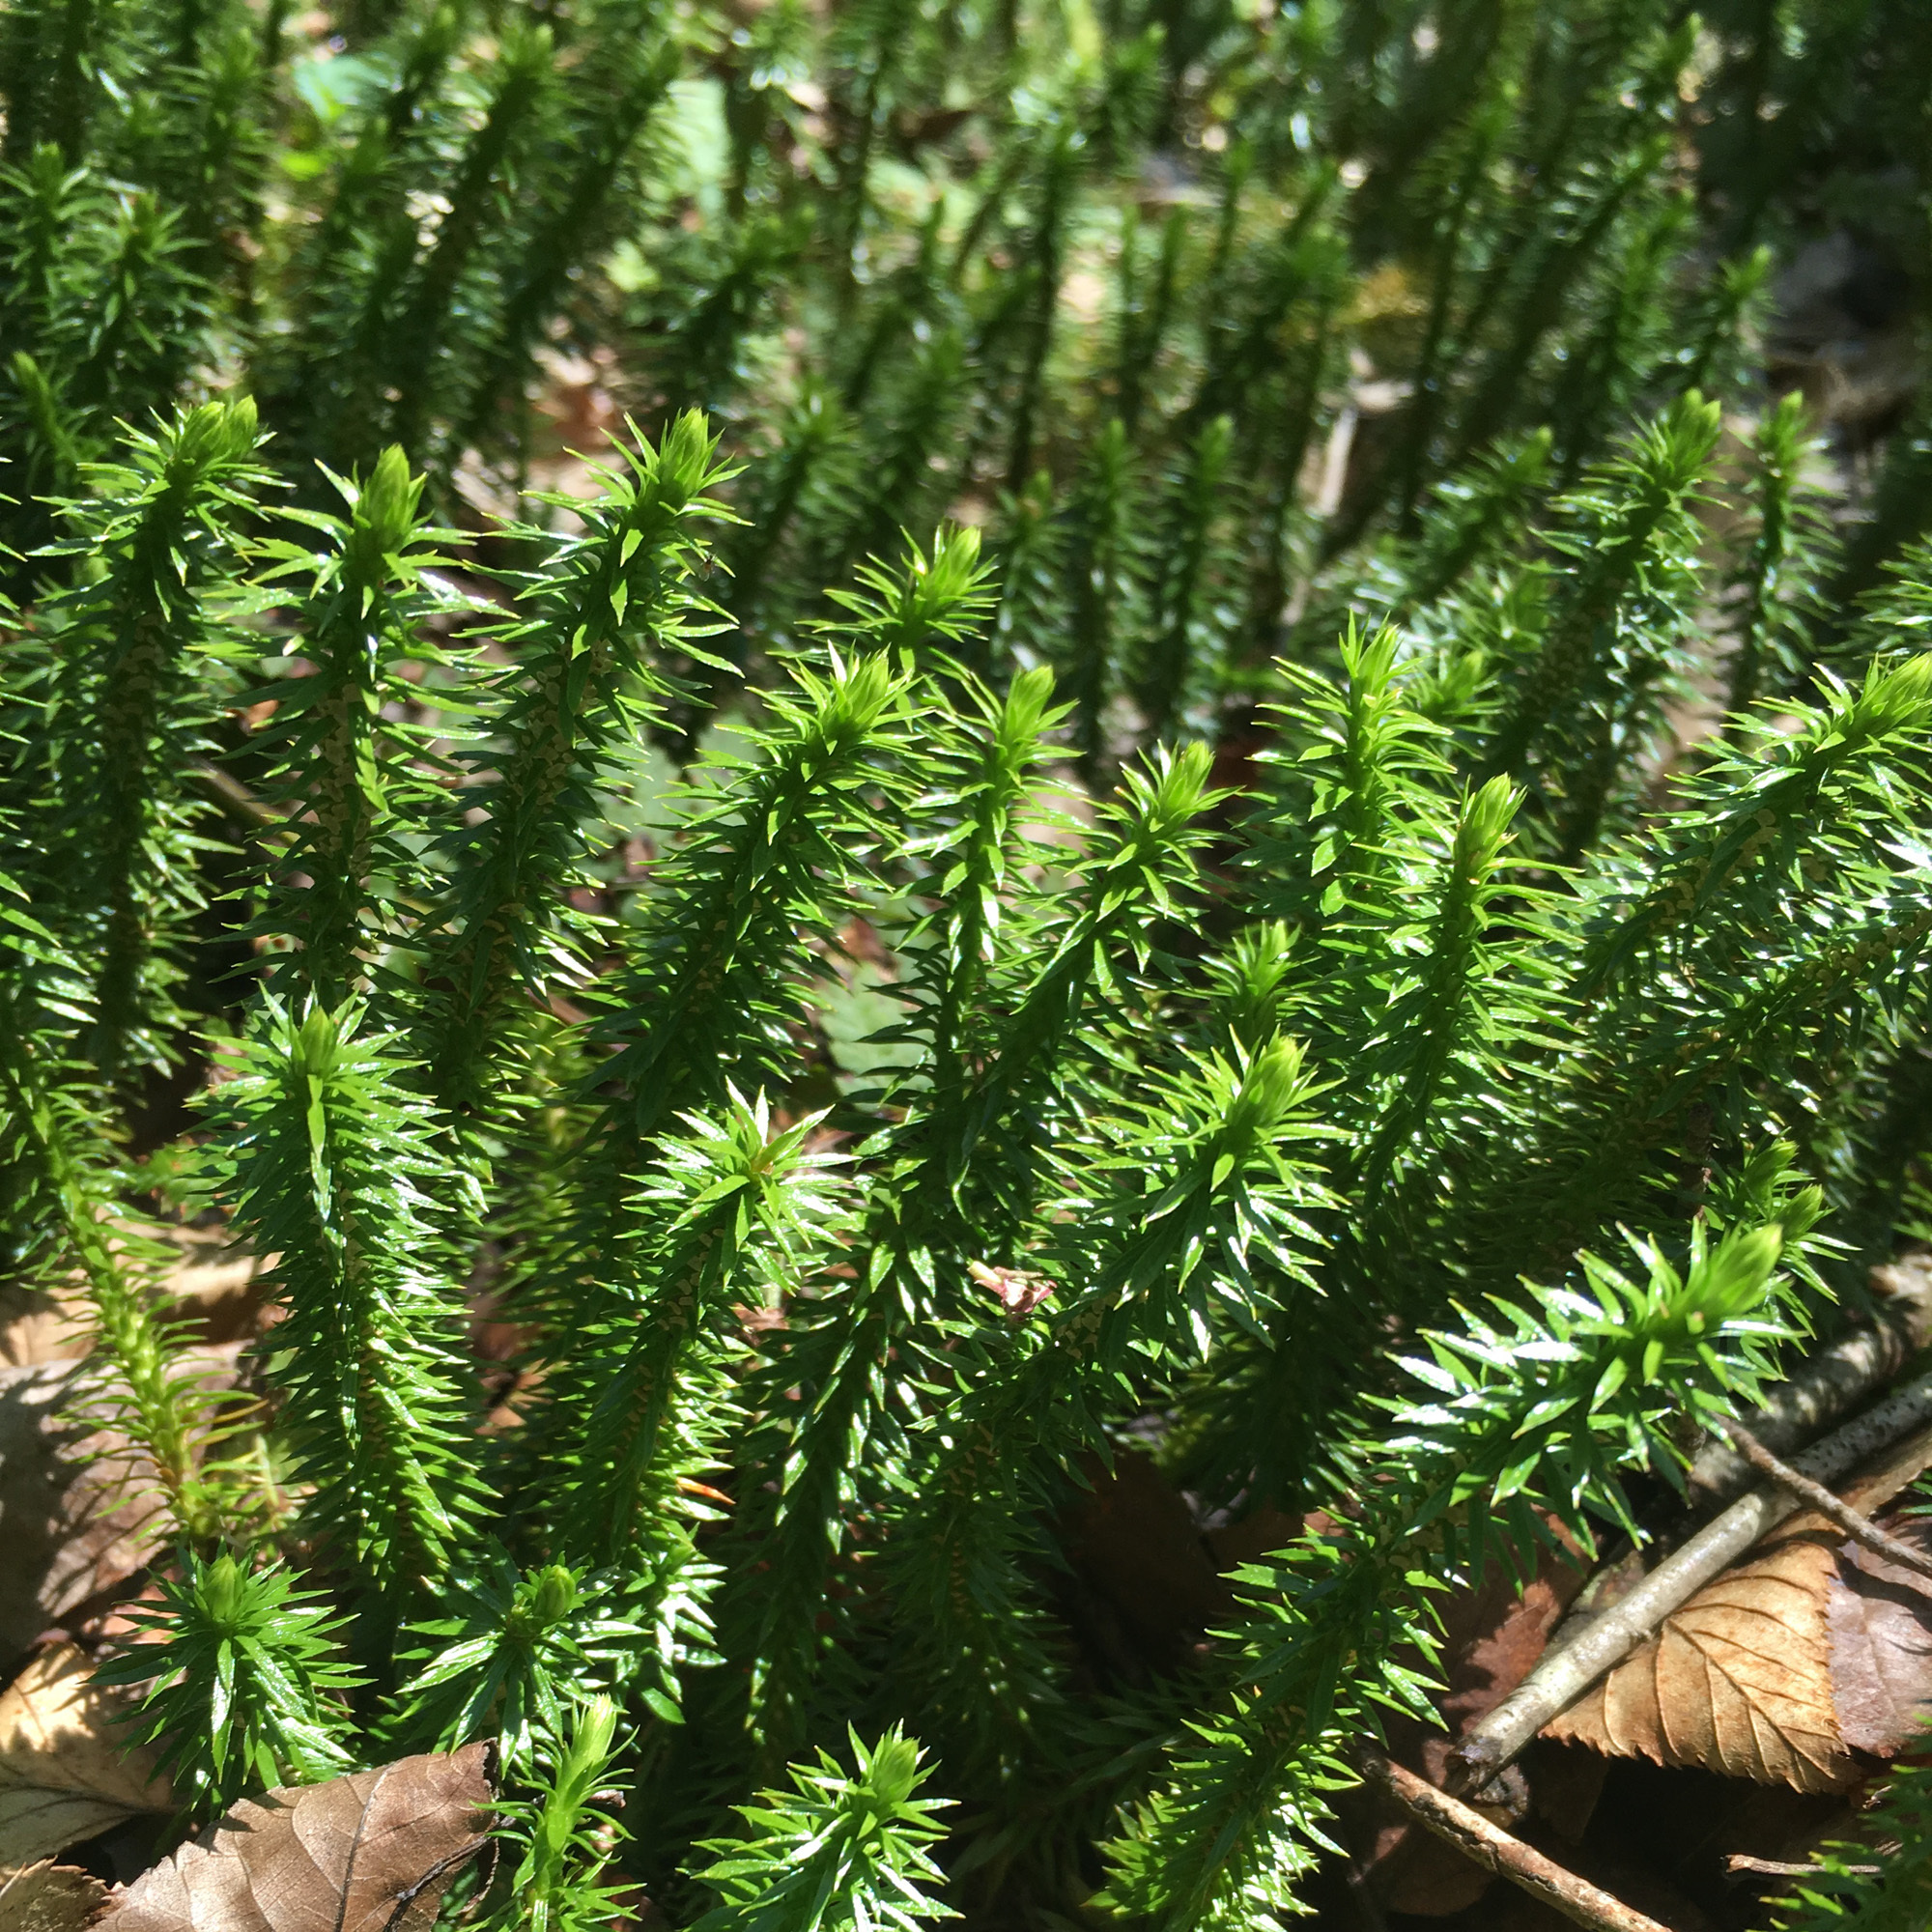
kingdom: Plantae
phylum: Tracheophyta
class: Lycopodiopsida
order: Lycopodiales
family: Lycopodiaceae
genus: Huperzia
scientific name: Huperzia lucidula
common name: Shining clubmoss
